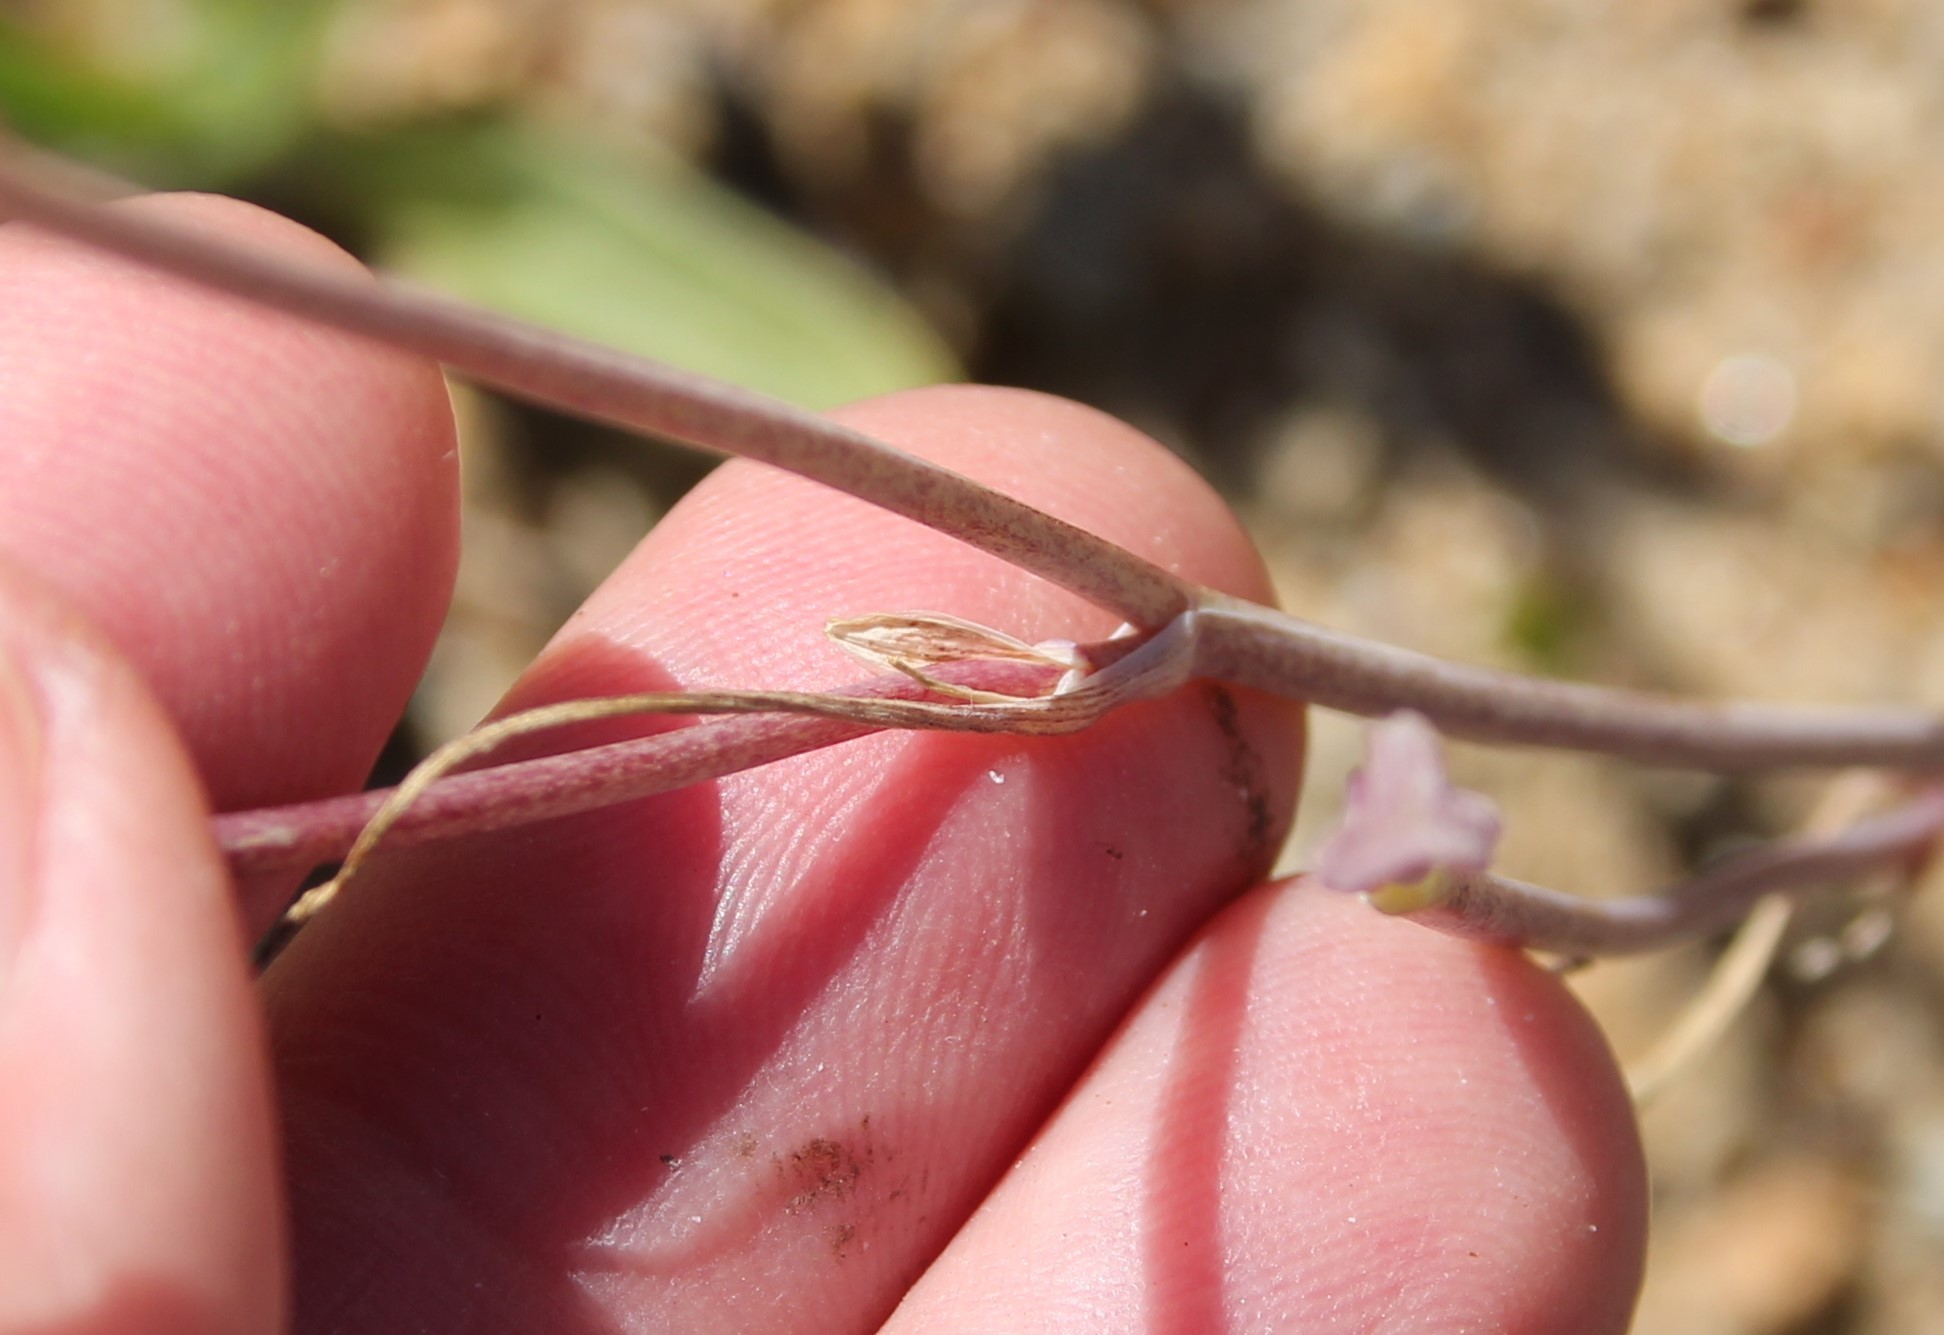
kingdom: Plantae
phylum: Tracheophyta
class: Liliopsida
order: Liliales
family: Liliaceae
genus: Calochortus
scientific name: Calochortus splendens
